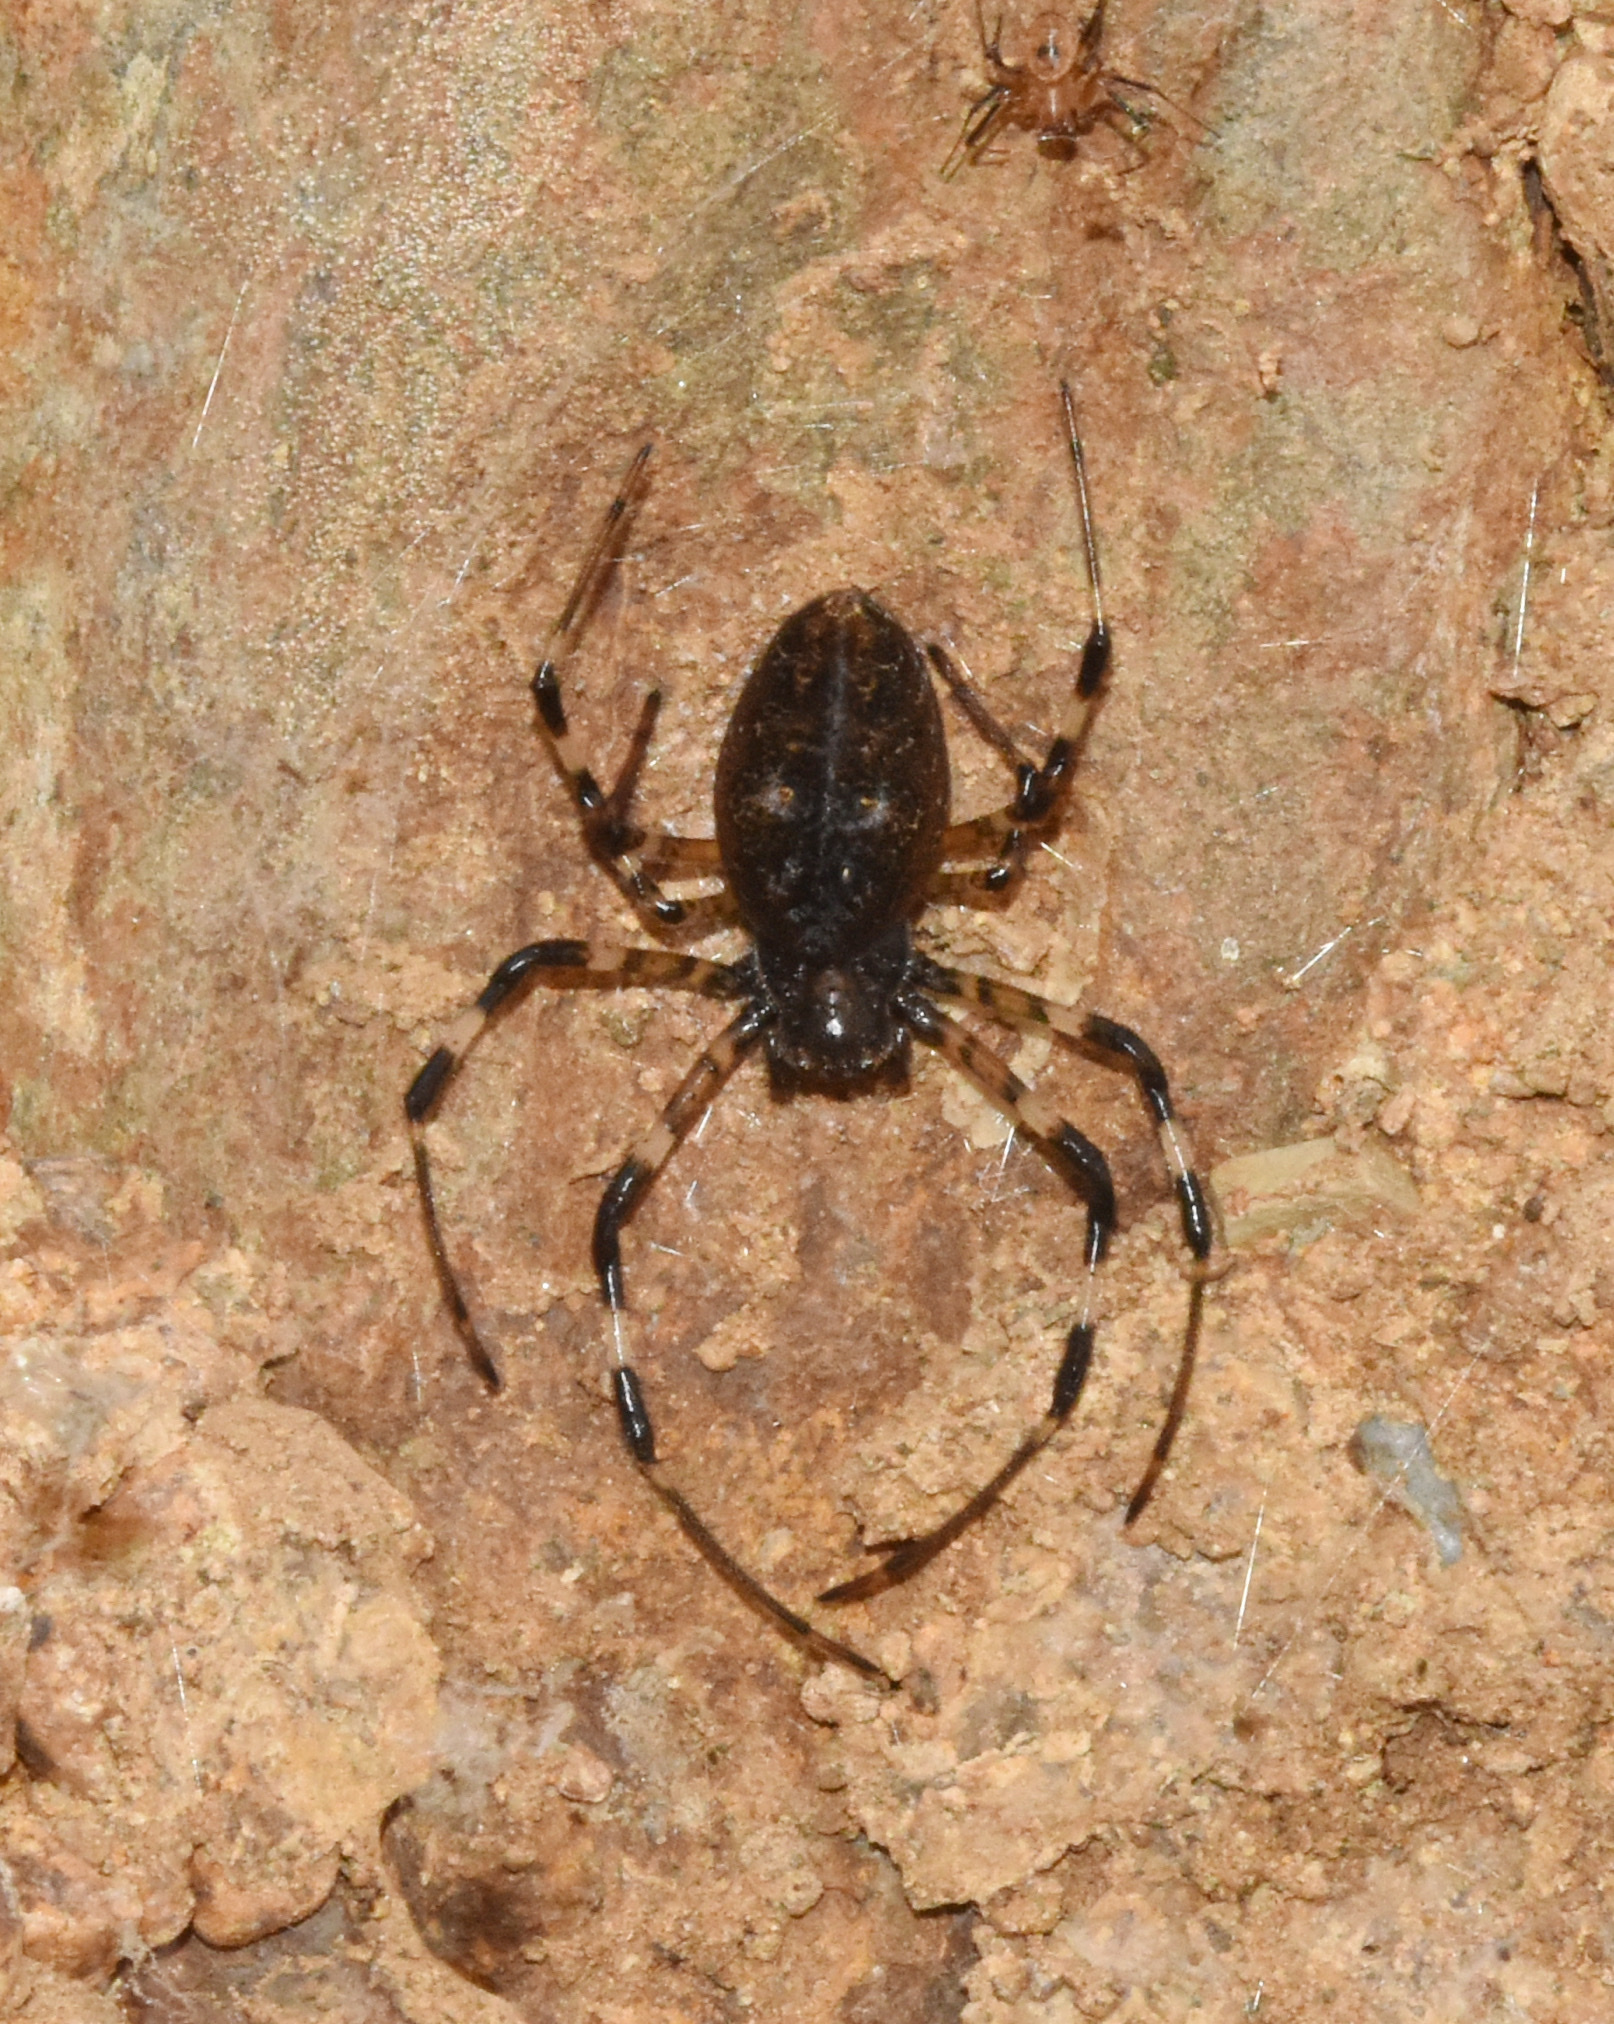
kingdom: Animalia
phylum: Arthropoda
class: Arachnida
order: Araneae
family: Araneidae
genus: Nephilingis
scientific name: Nephilingis cruentata
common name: African hermit spider
